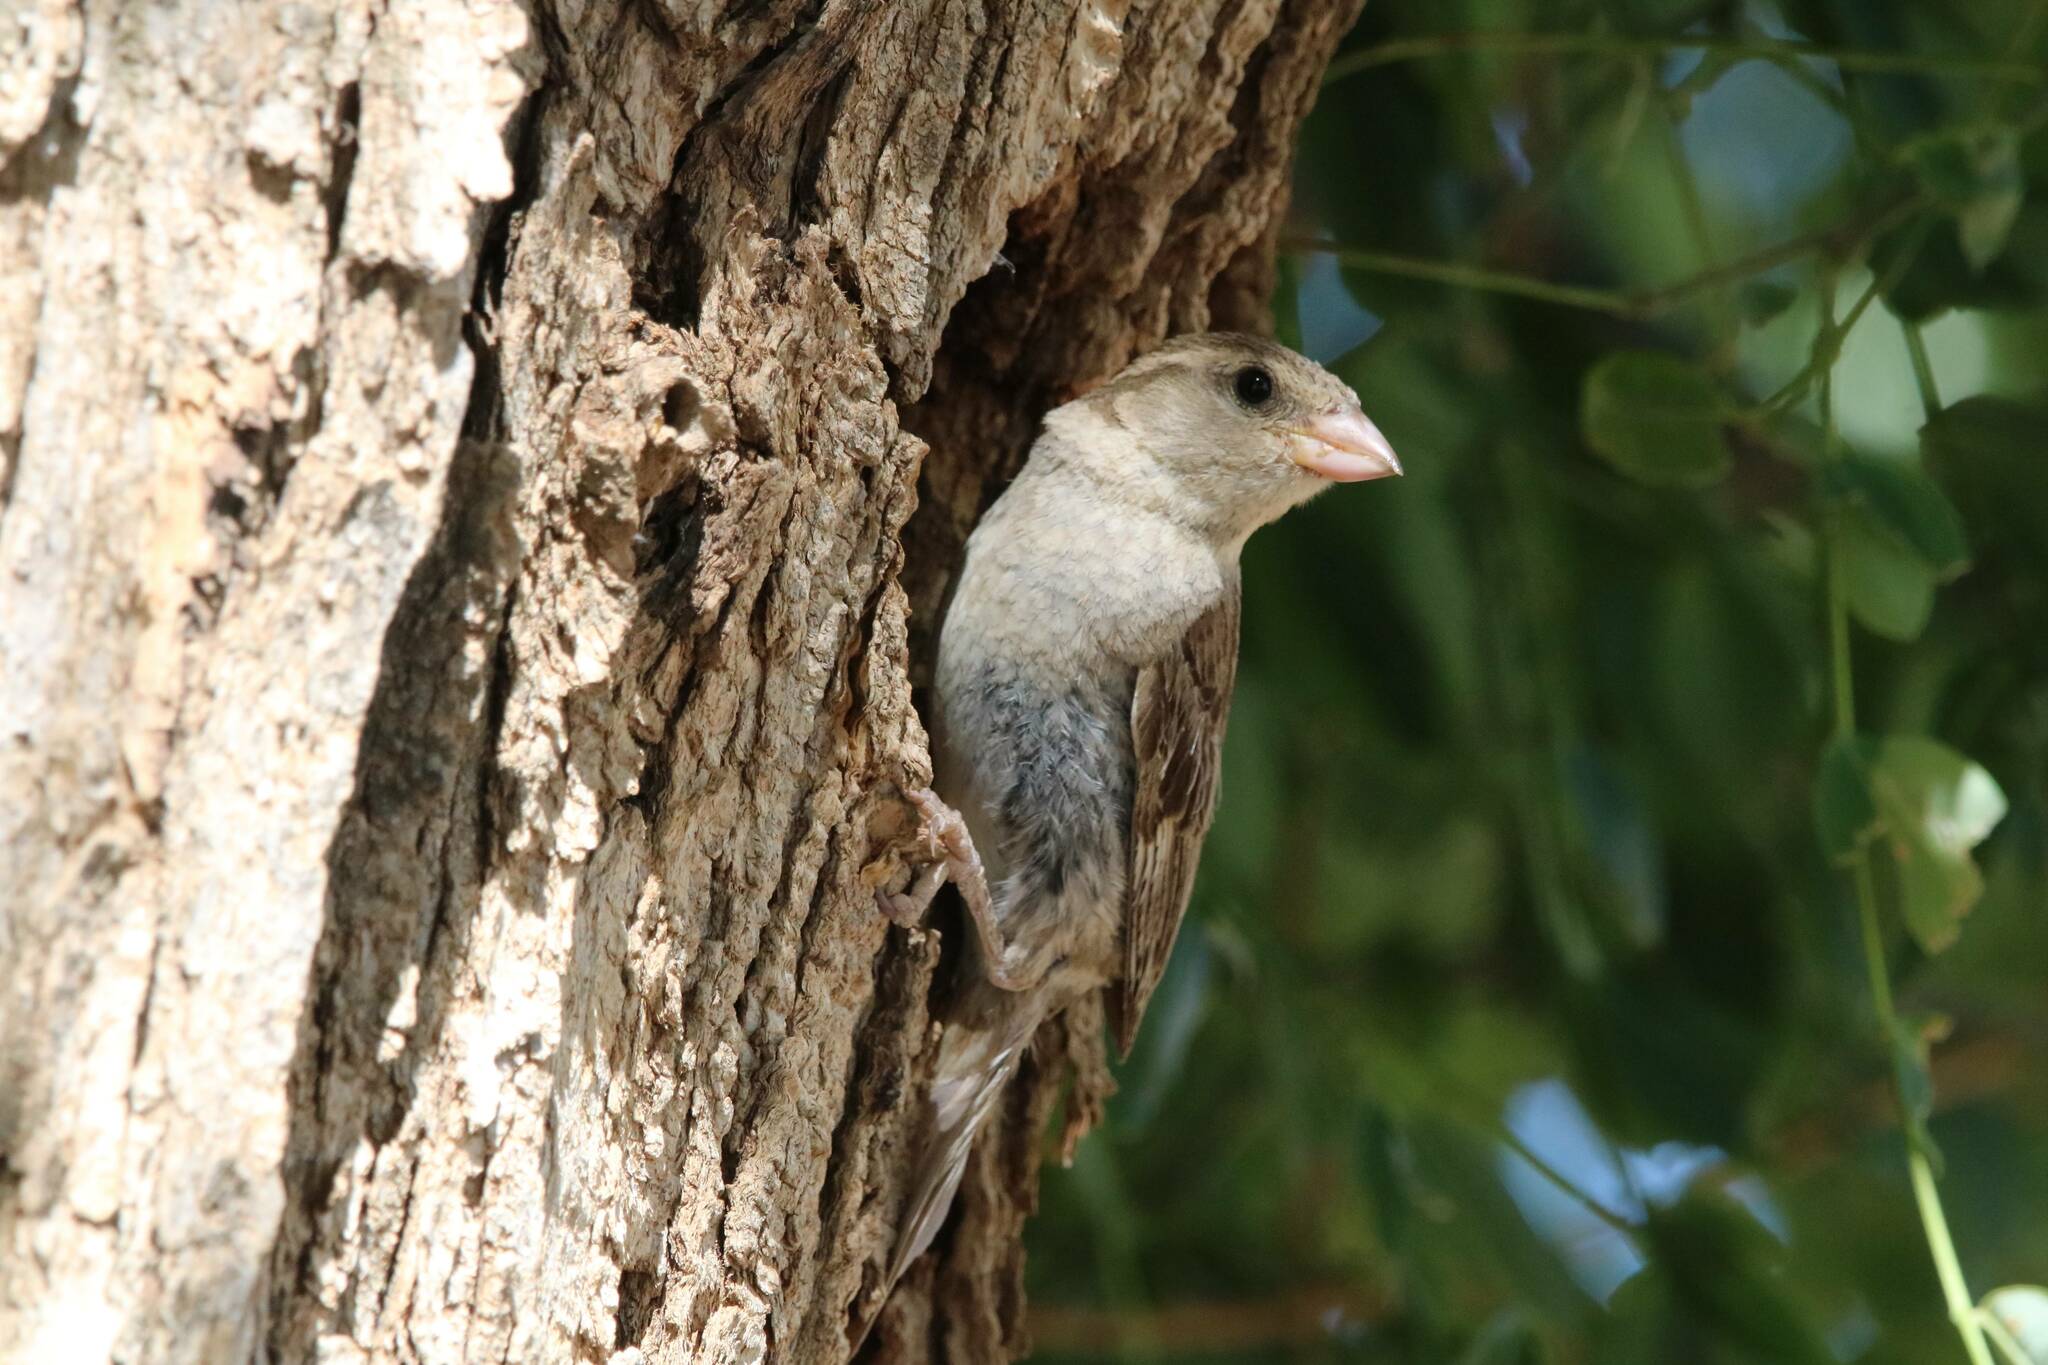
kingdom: Animalia
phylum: Chordata
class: Aves
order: Passeriformes
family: Passeridae
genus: Passer
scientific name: Passer hispaniolensis
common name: Spanish sparrow
